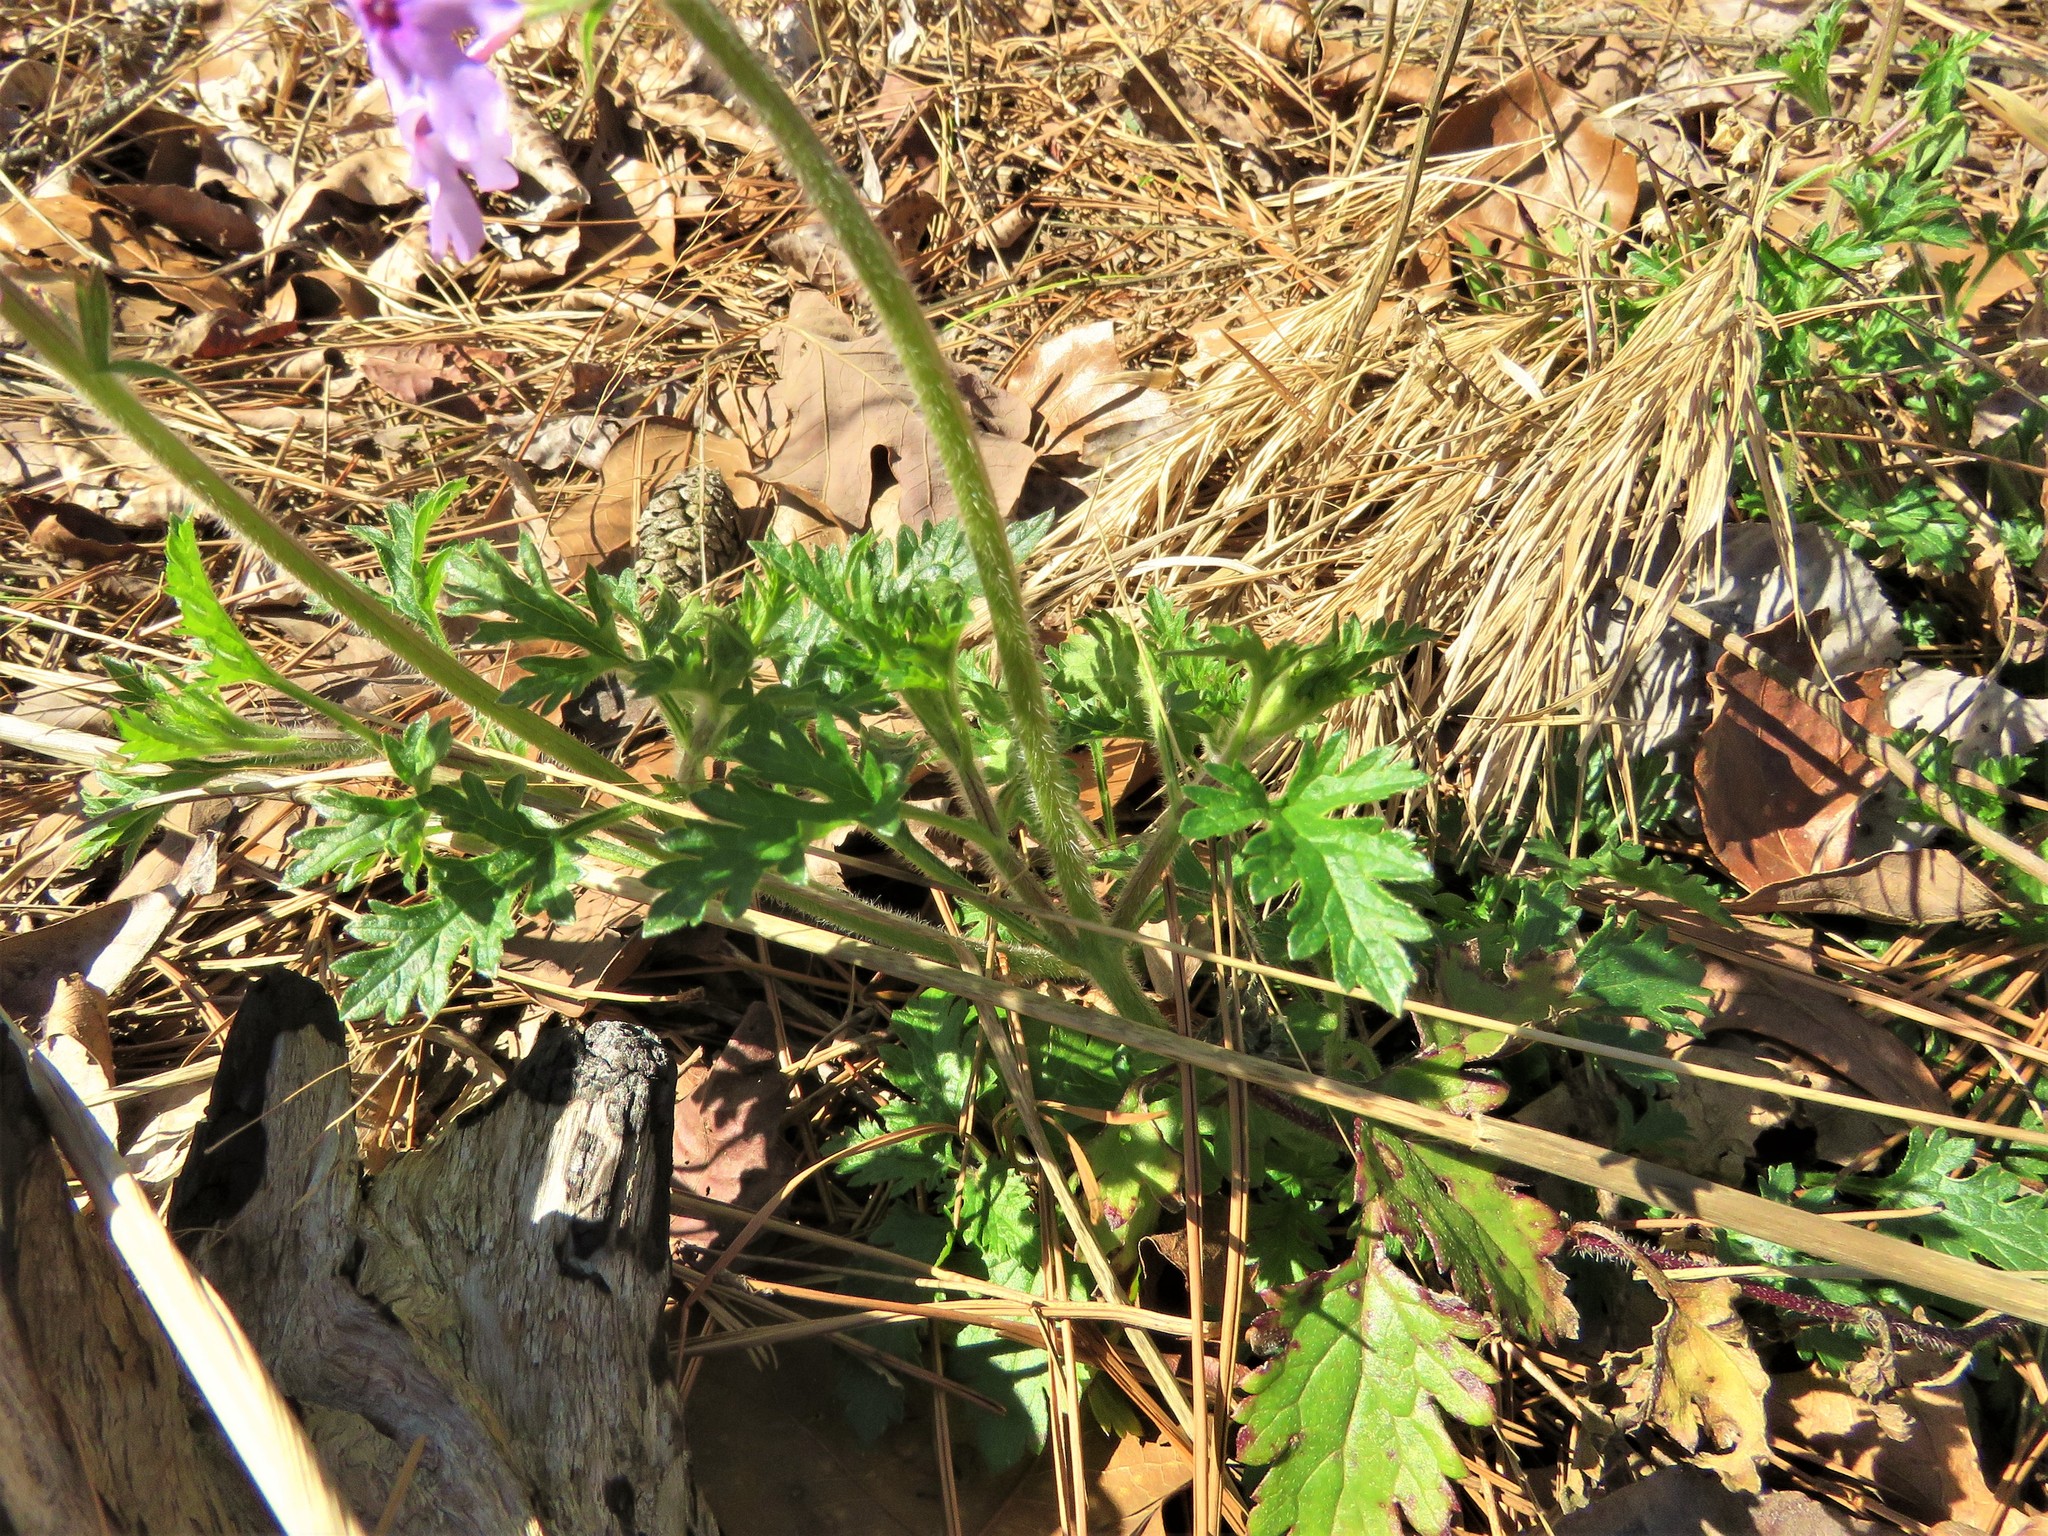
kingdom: Plantae
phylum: Tracheophyta
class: Magnoliopsida
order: Lamiales
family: Verbenaceae
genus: Verbena
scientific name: Verbena canadensis
